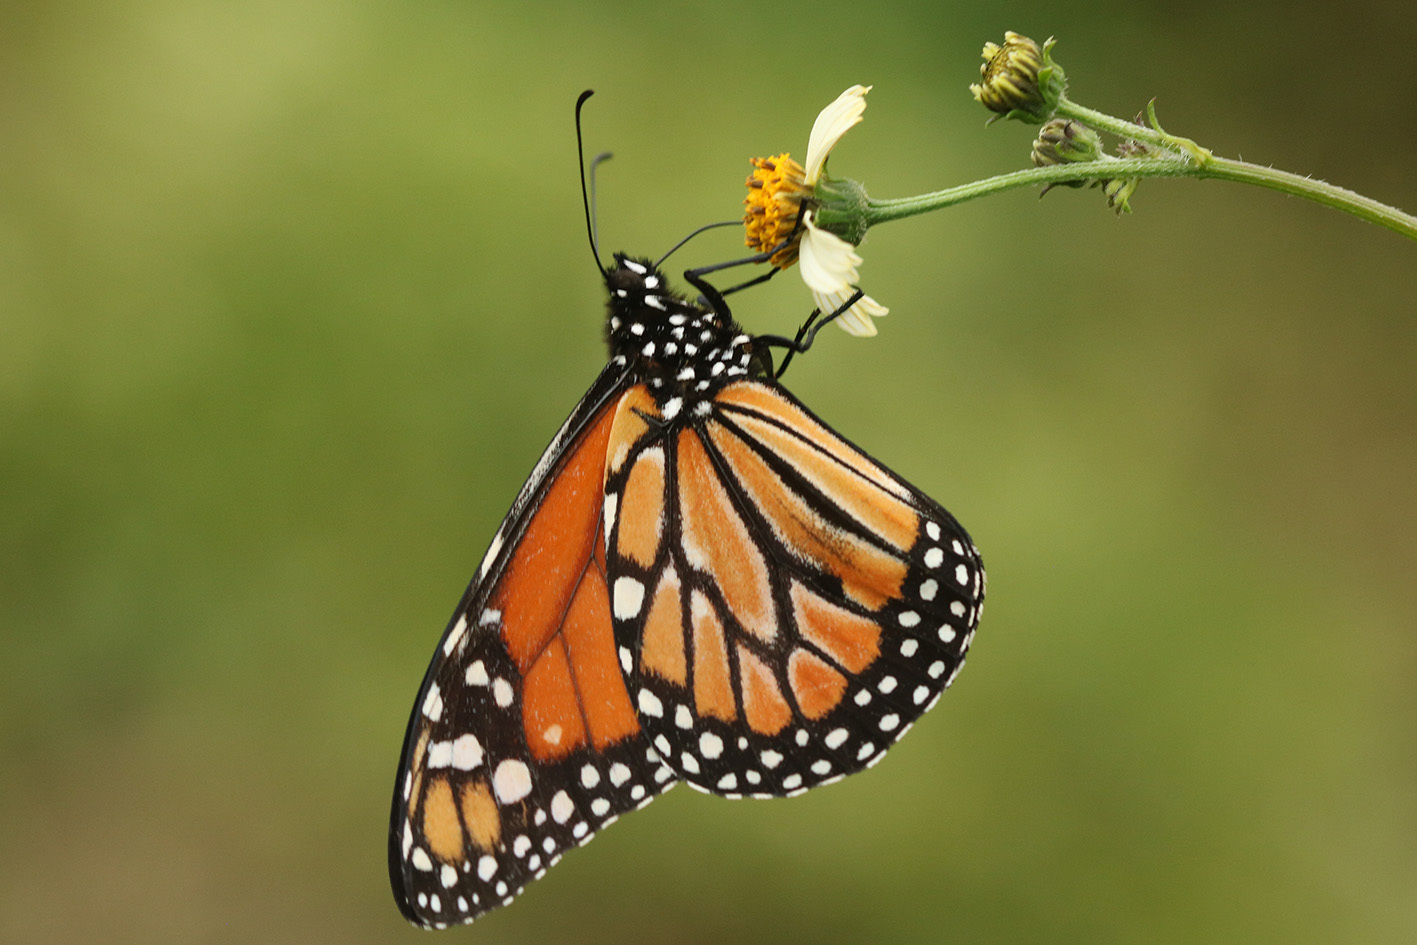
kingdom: Animalia
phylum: Arthropoda
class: Insecta
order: Lepidoptera
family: Nymphalidae
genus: Danaus
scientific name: Danaus erippus
